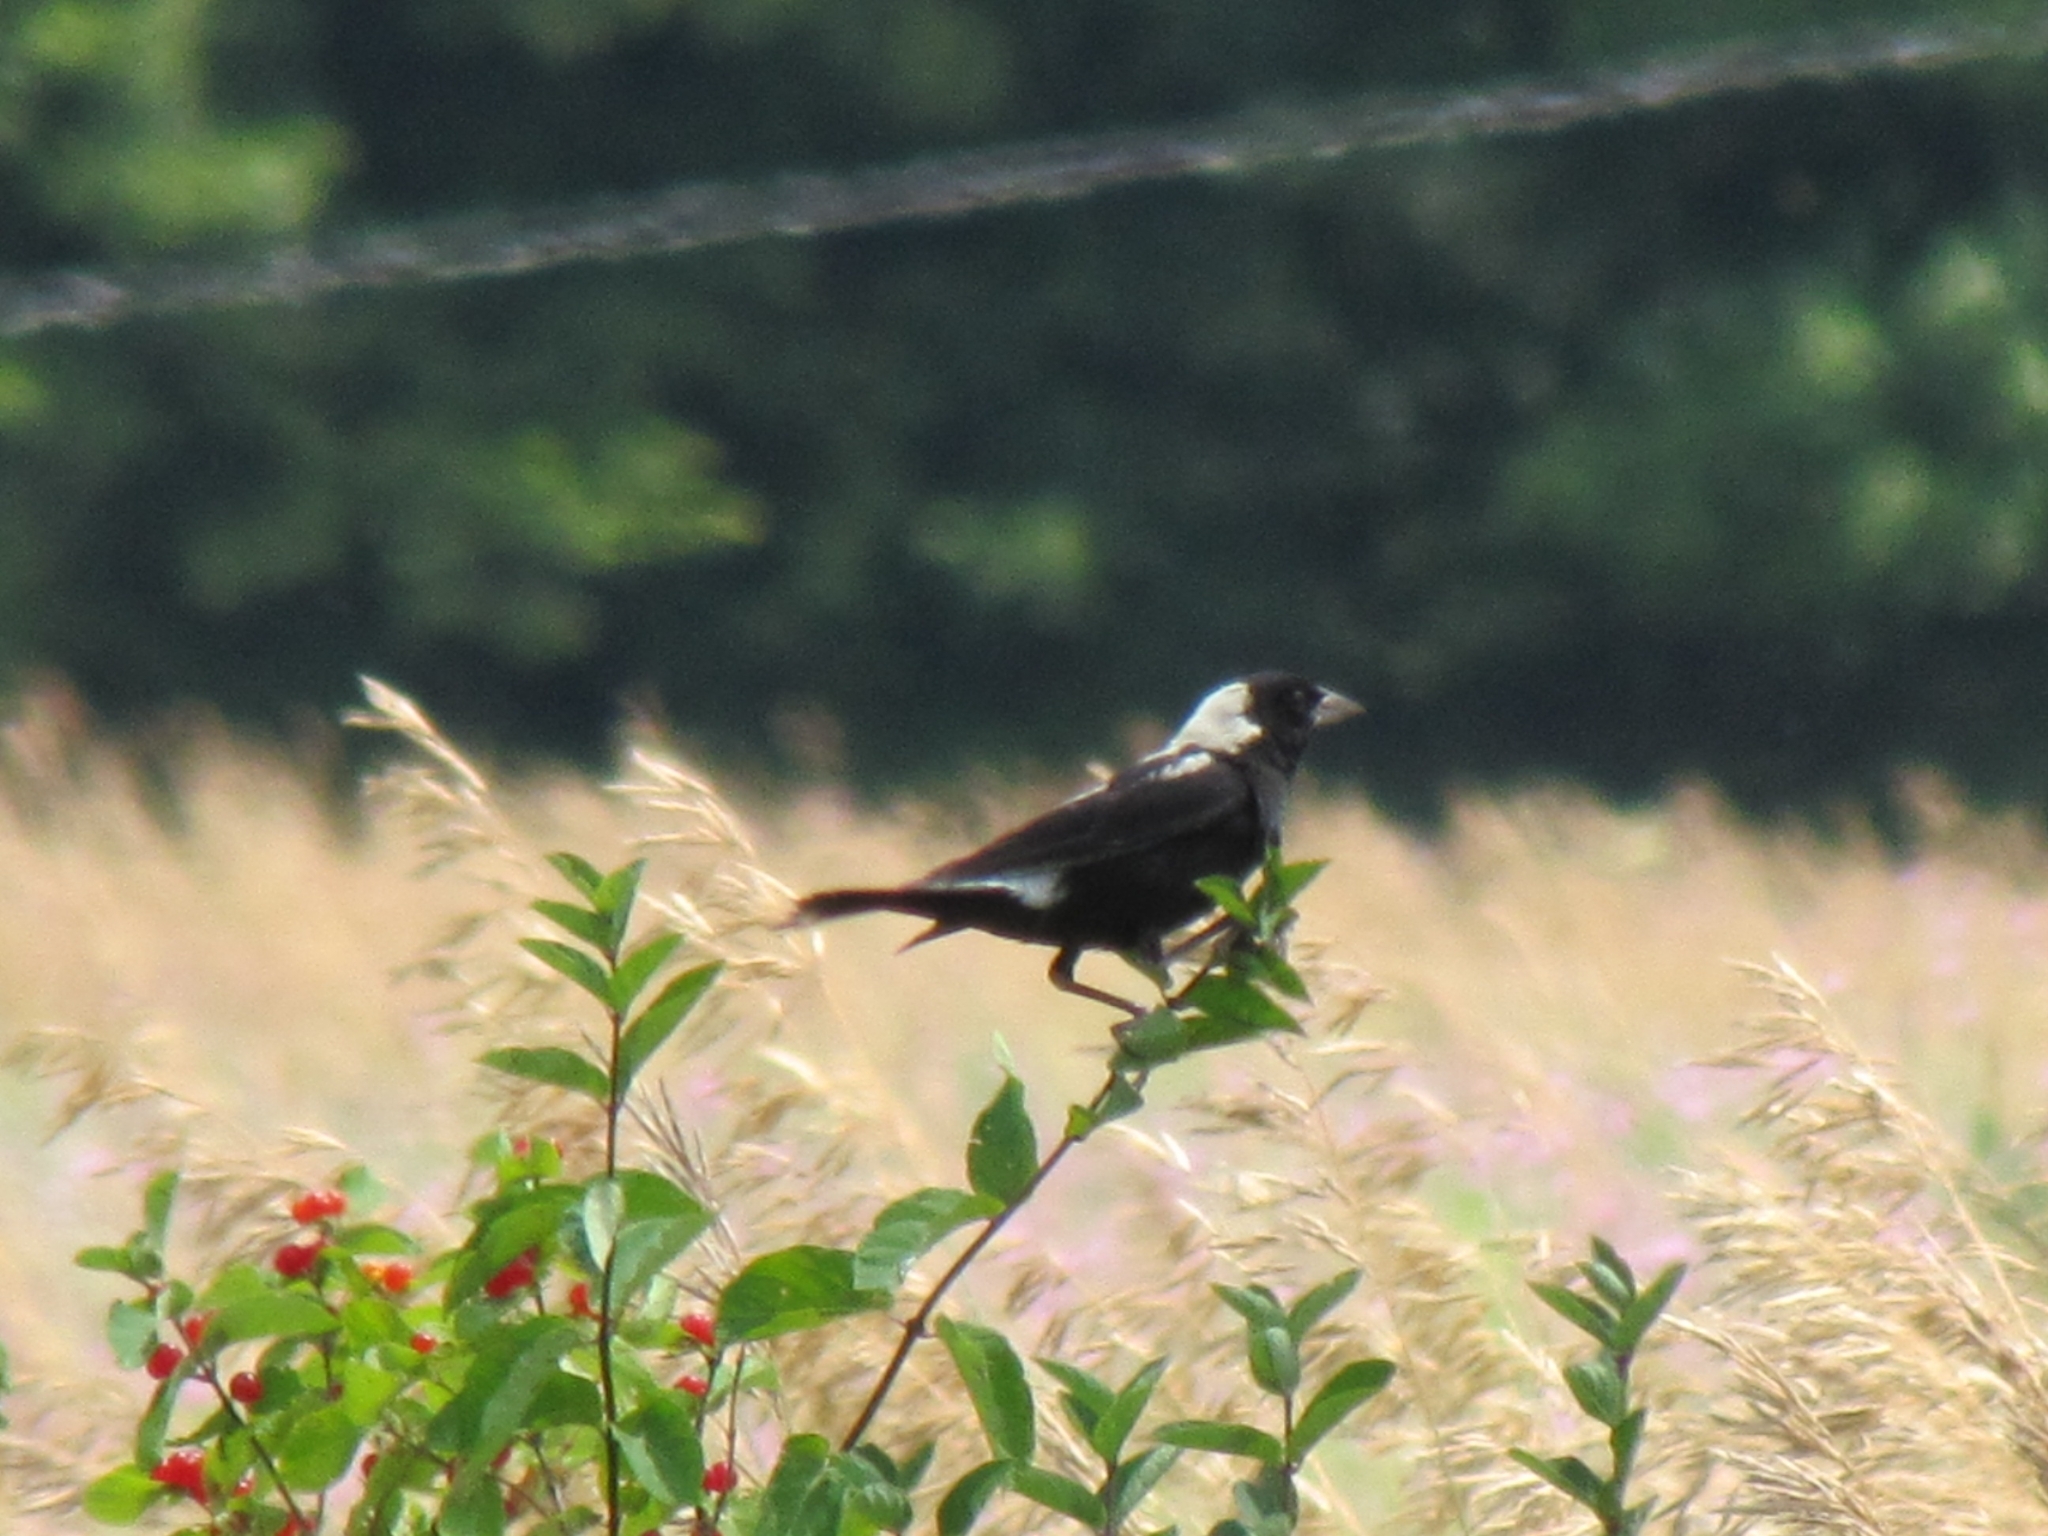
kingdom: Animalia
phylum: Chordata
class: Aves
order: Passeriformes
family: Icteridae
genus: Dolichonyx
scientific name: Dolichonyx oryzivorus
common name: Bobolink
